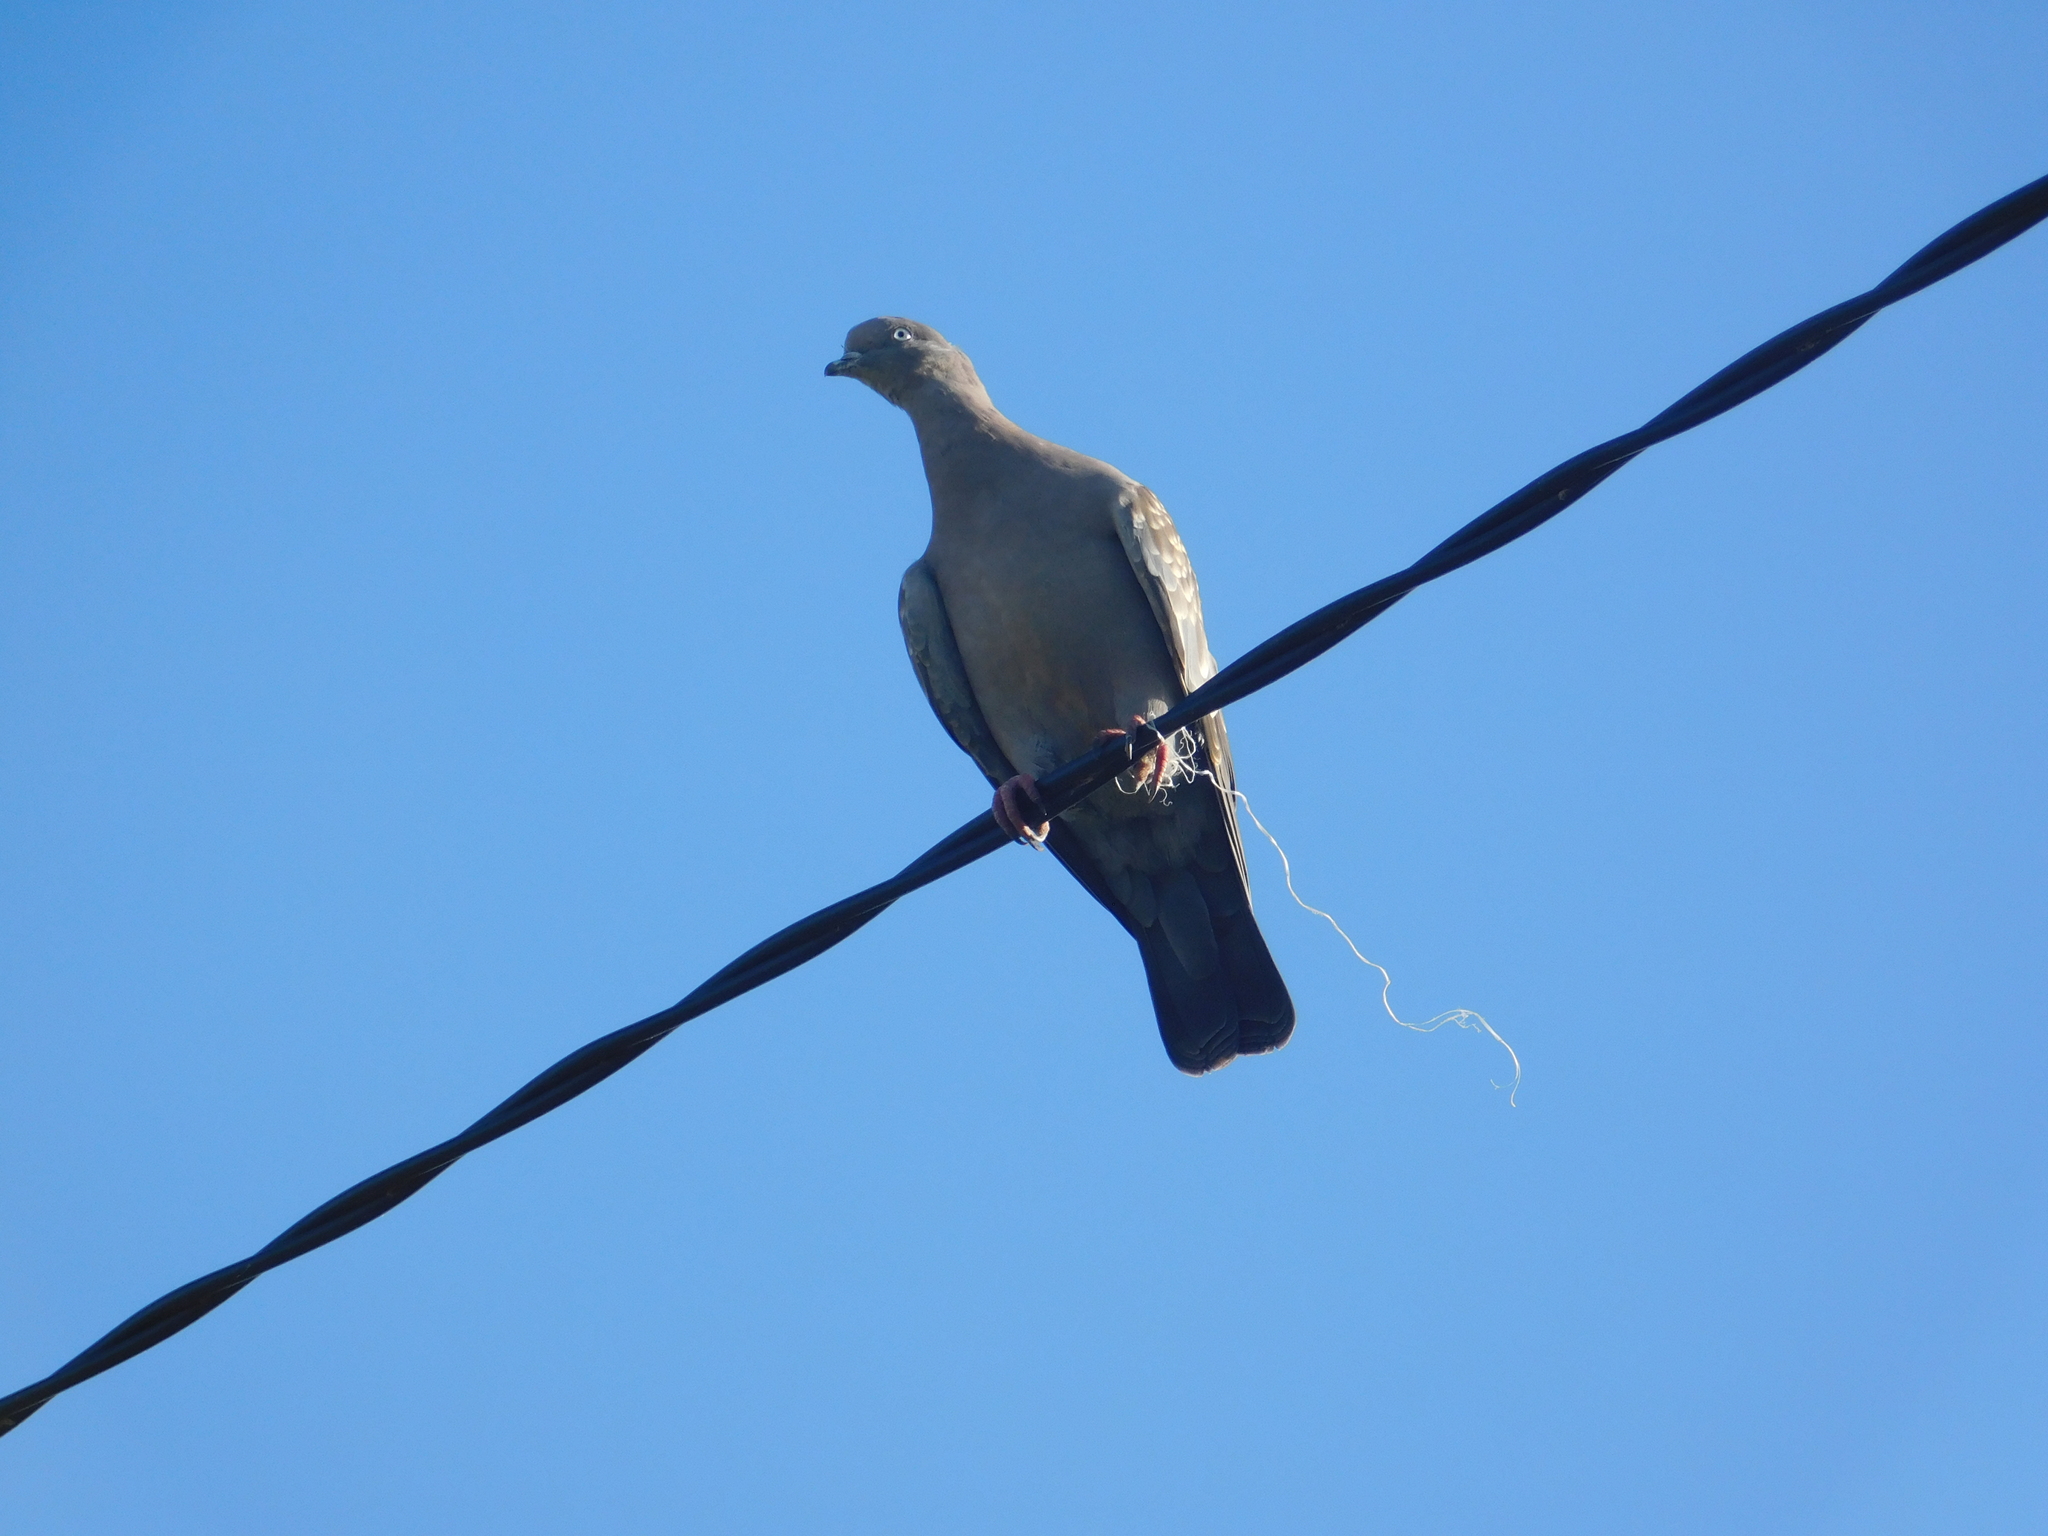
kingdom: Animalia
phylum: Chordata
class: Aves
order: Columbiformes
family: Columbidae
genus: Patagioenas
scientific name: Patagioenas maculosa
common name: Spot-winged pigeon
